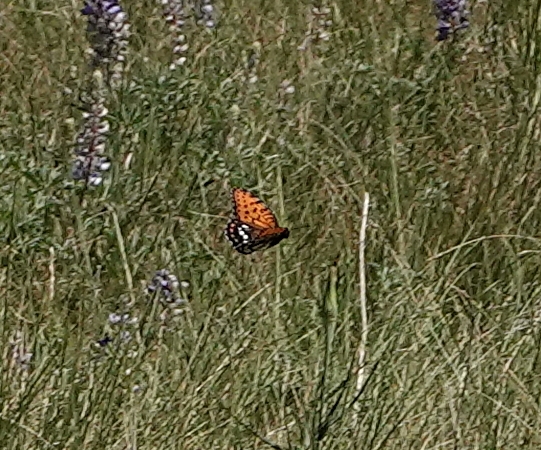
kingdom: Animalia
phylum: Arthropoda
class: Insecta
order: Lepidoptera
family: Nymphalidae
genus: Speyeria
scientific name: Speyeria idalia
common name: Regal fritillary
